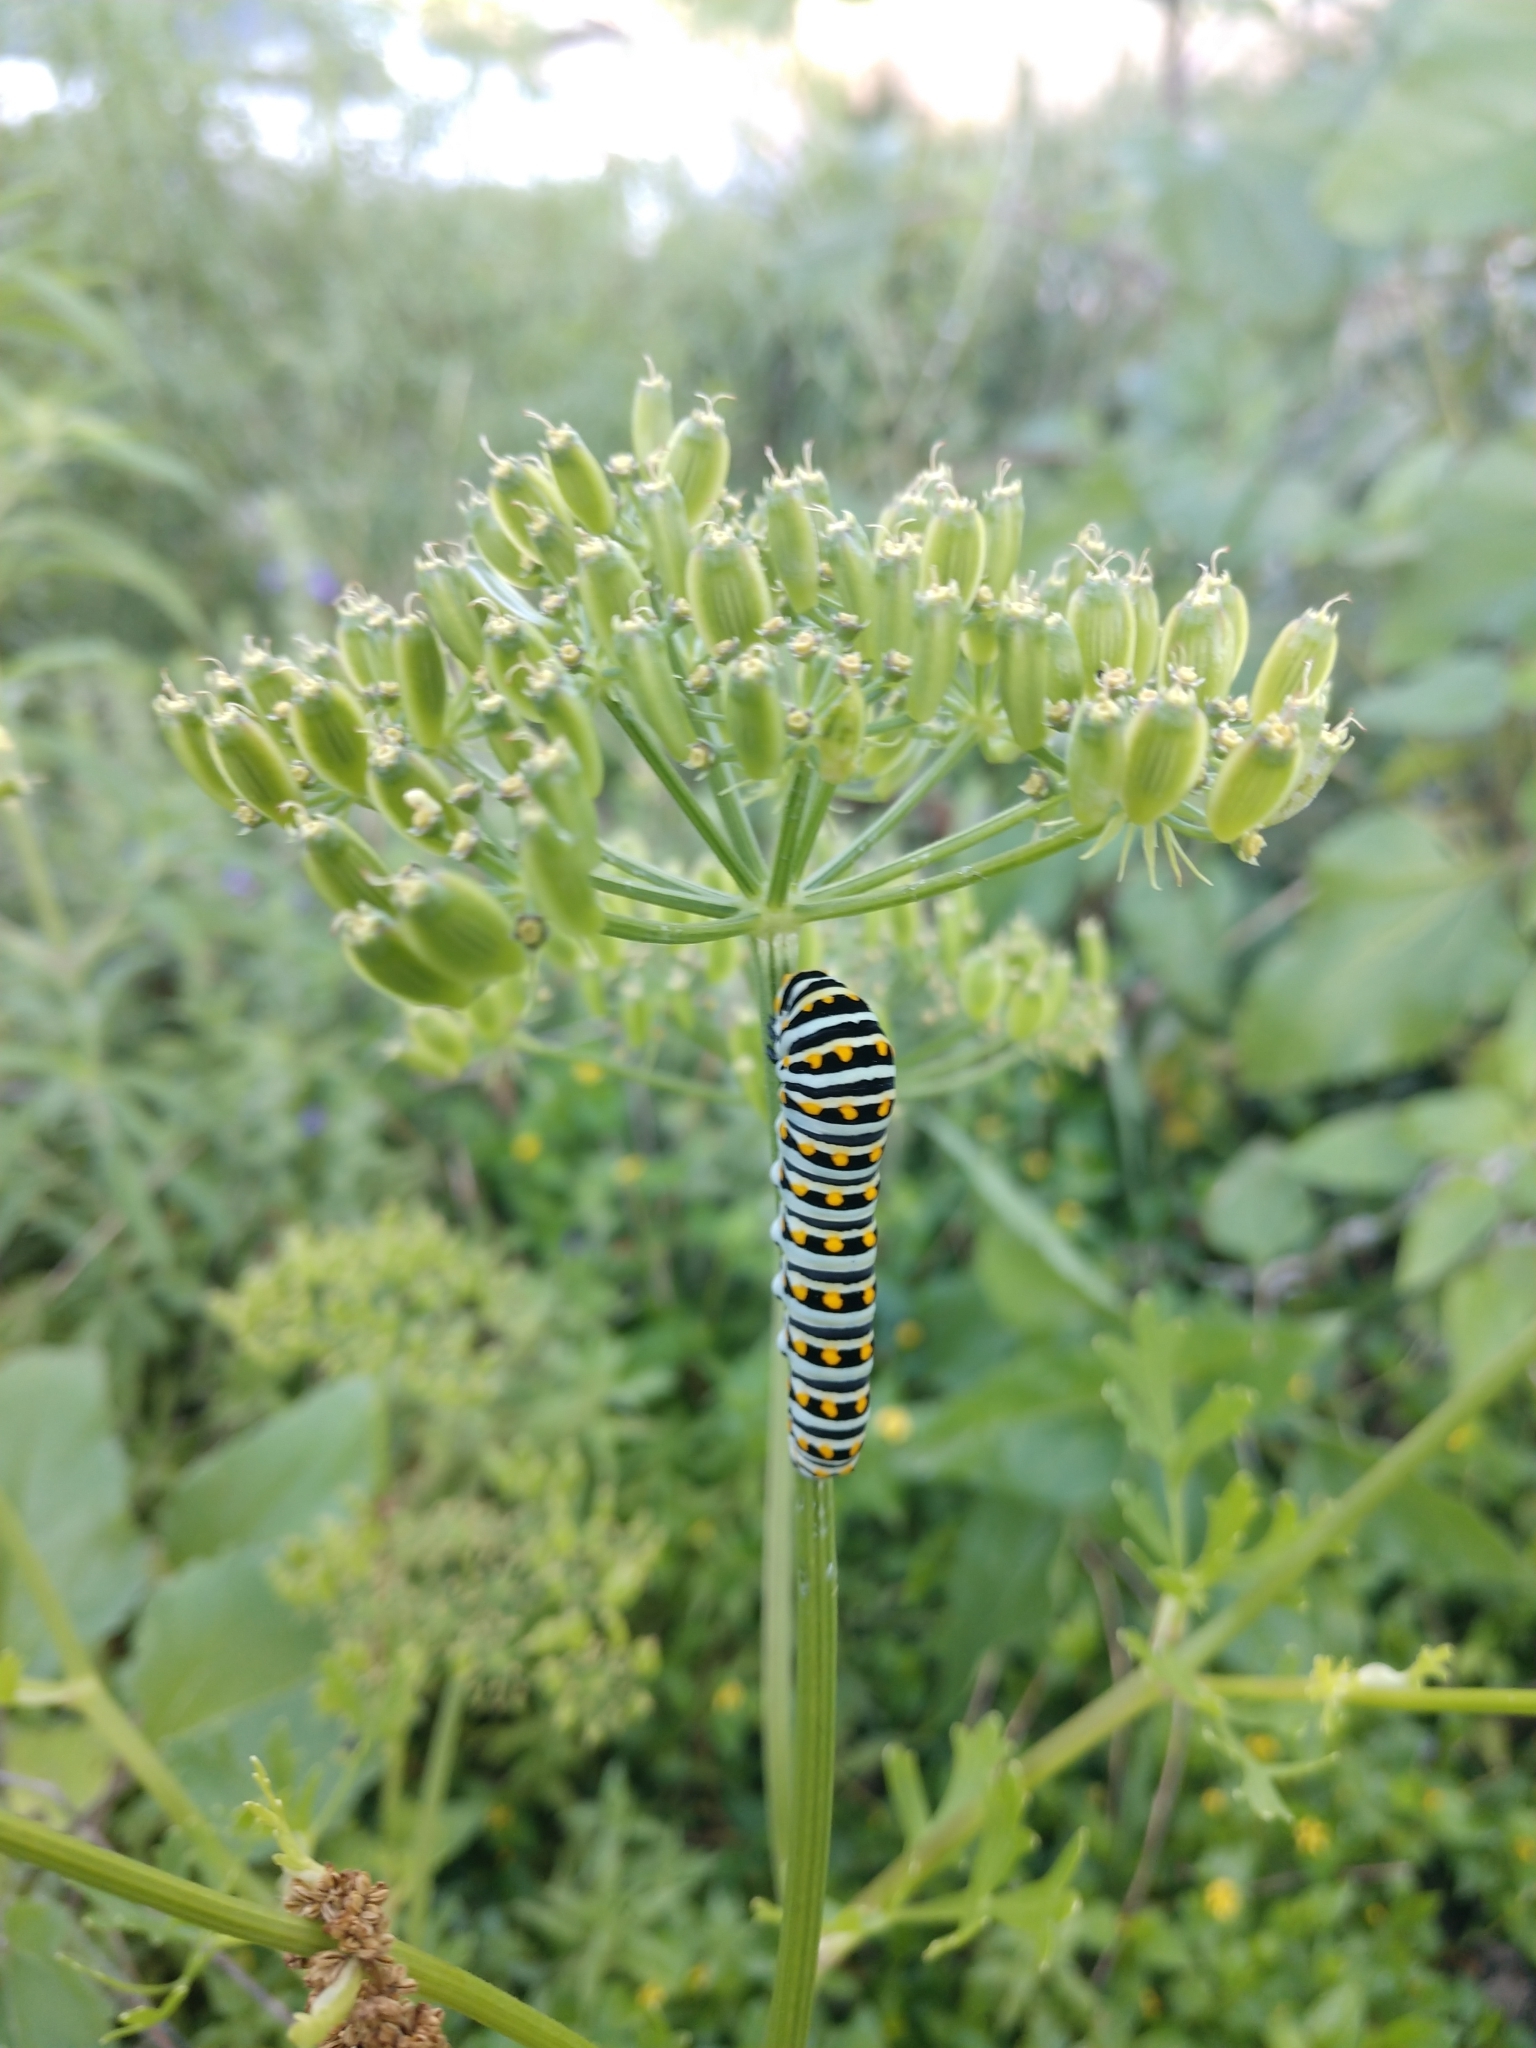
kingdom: Animalia
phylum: Arthropoda
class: Insecta
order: Lepidoptera
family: Papilionidae
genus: Papilio
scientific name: Papilio polyxenes
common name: Black swallowtail
